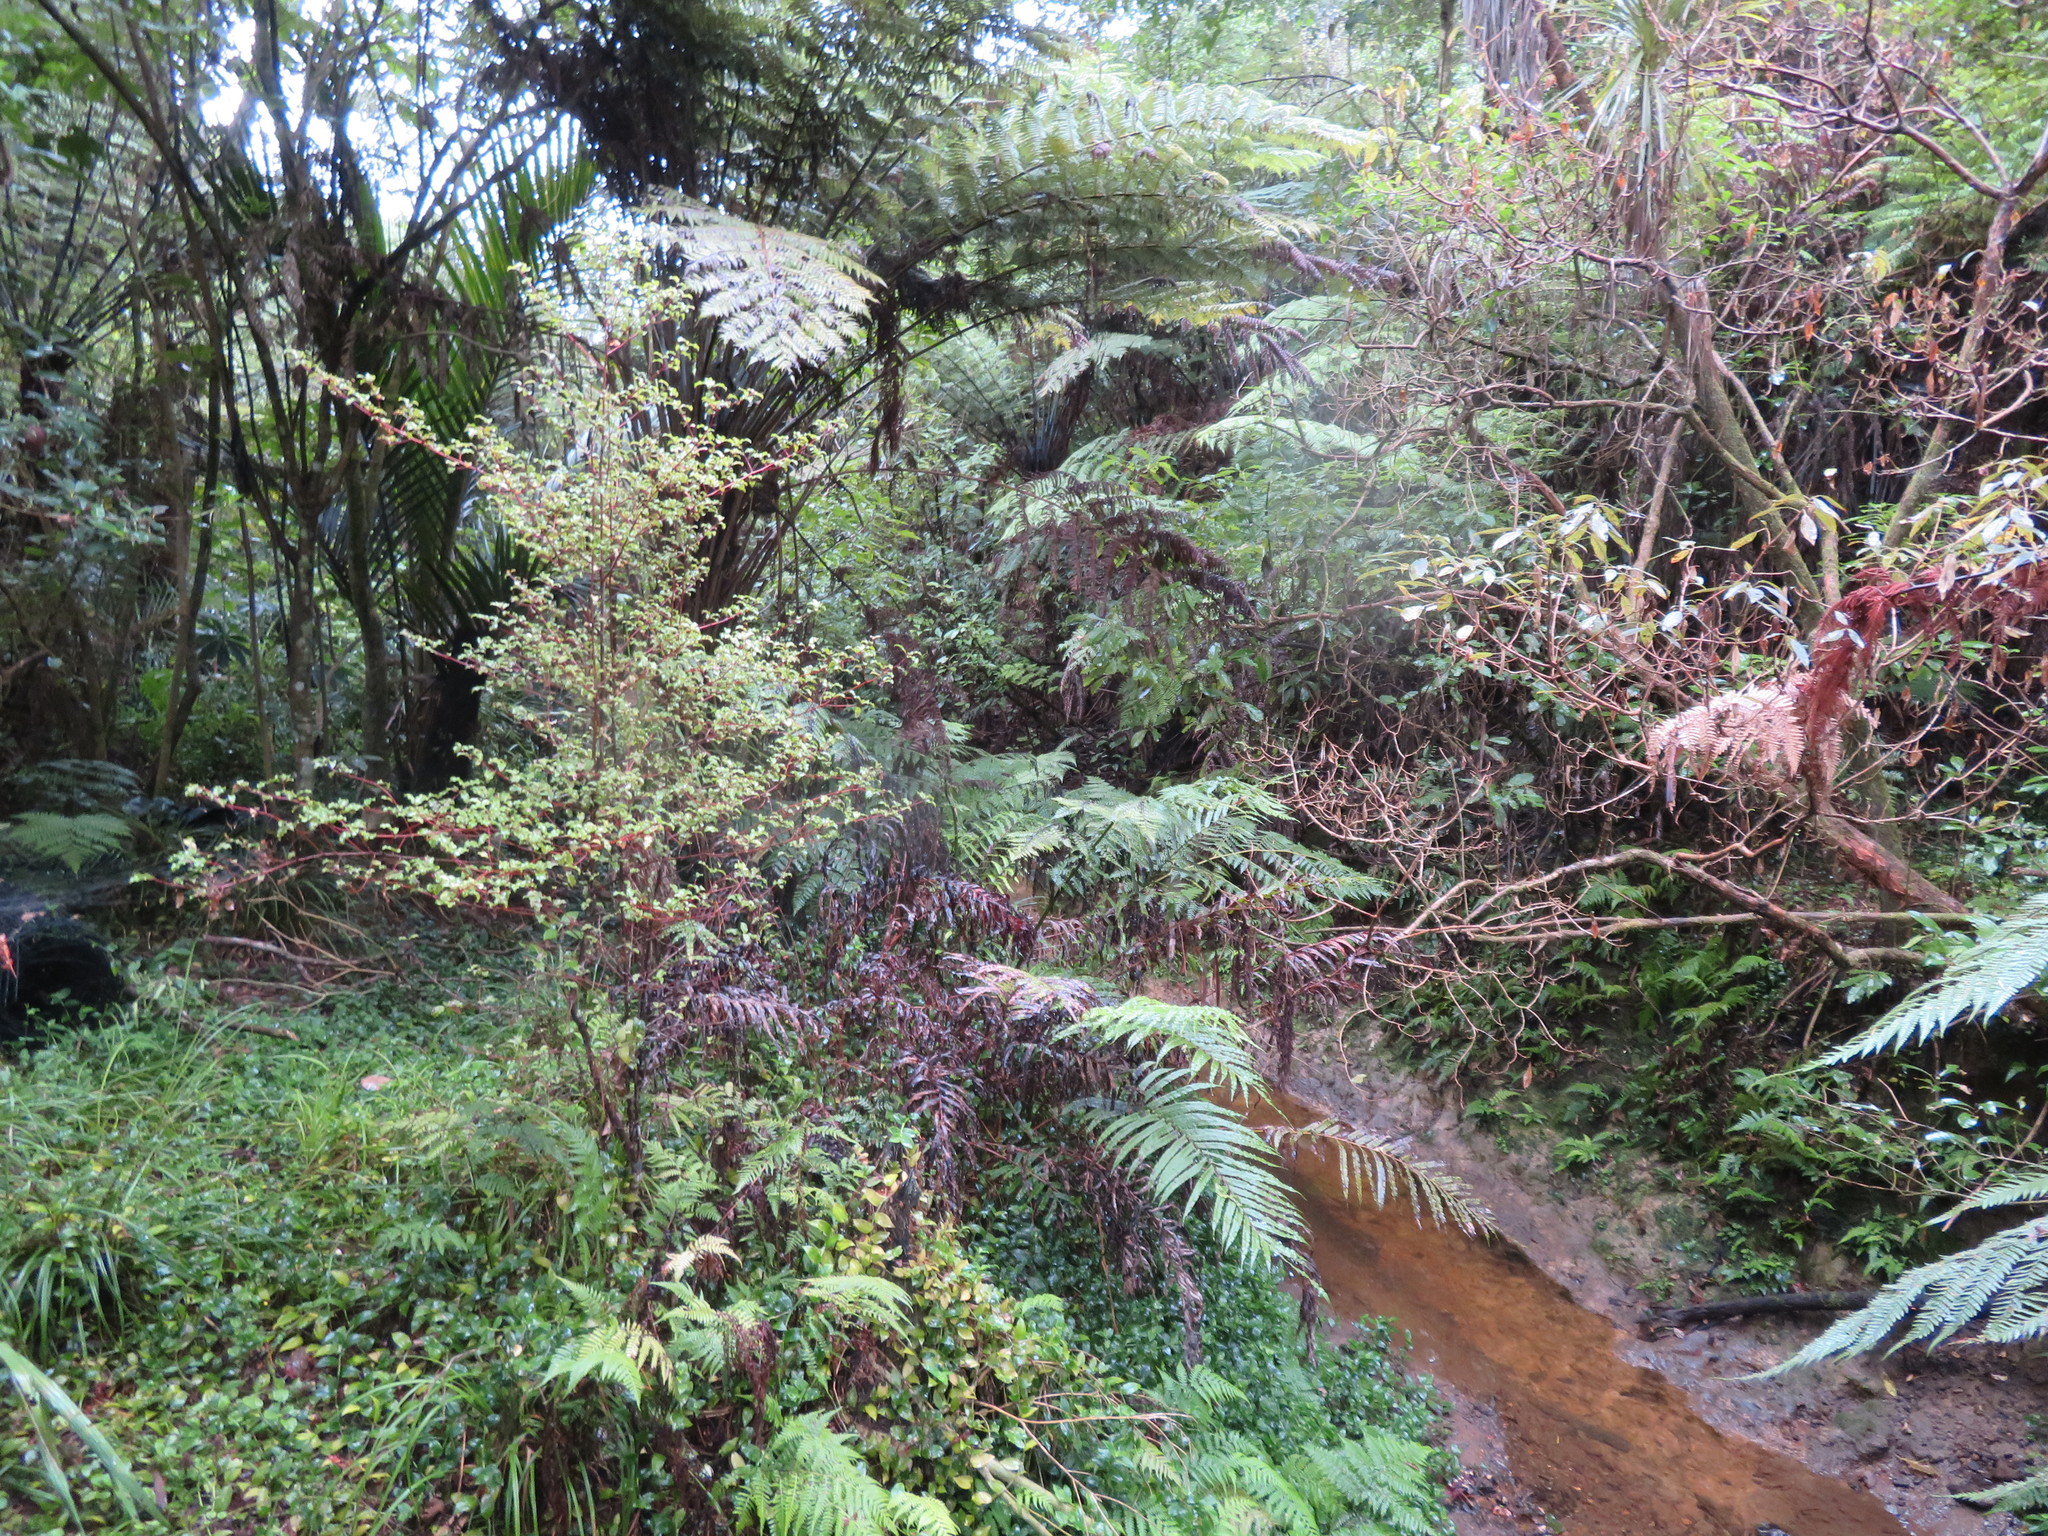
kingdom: Plantae
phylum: Tracheophyta
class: Magnoliopsida
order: Ericales
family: Primulaceae
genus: Myrsine
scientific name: Myrsine australis
